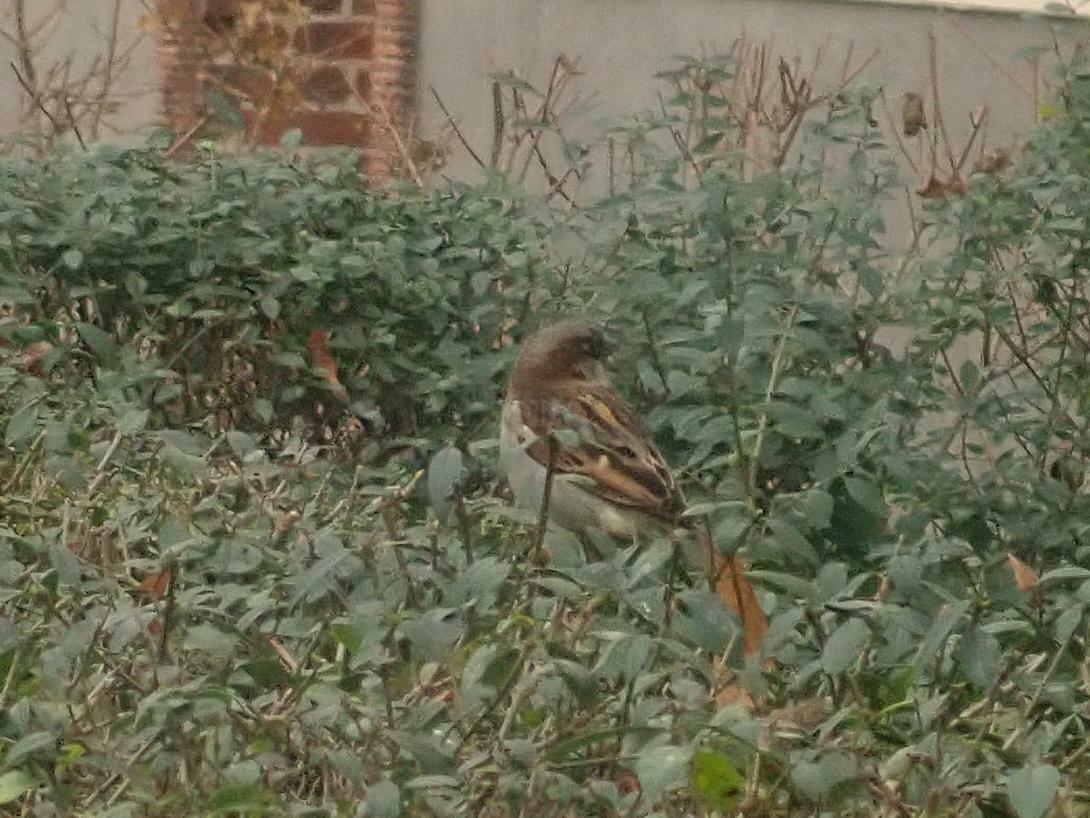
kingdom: Animalia
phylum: Chordata
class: Aves
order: Passeriformes
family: Passeridae
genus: Passer
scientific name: Passer domesticus
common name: House sparrow
